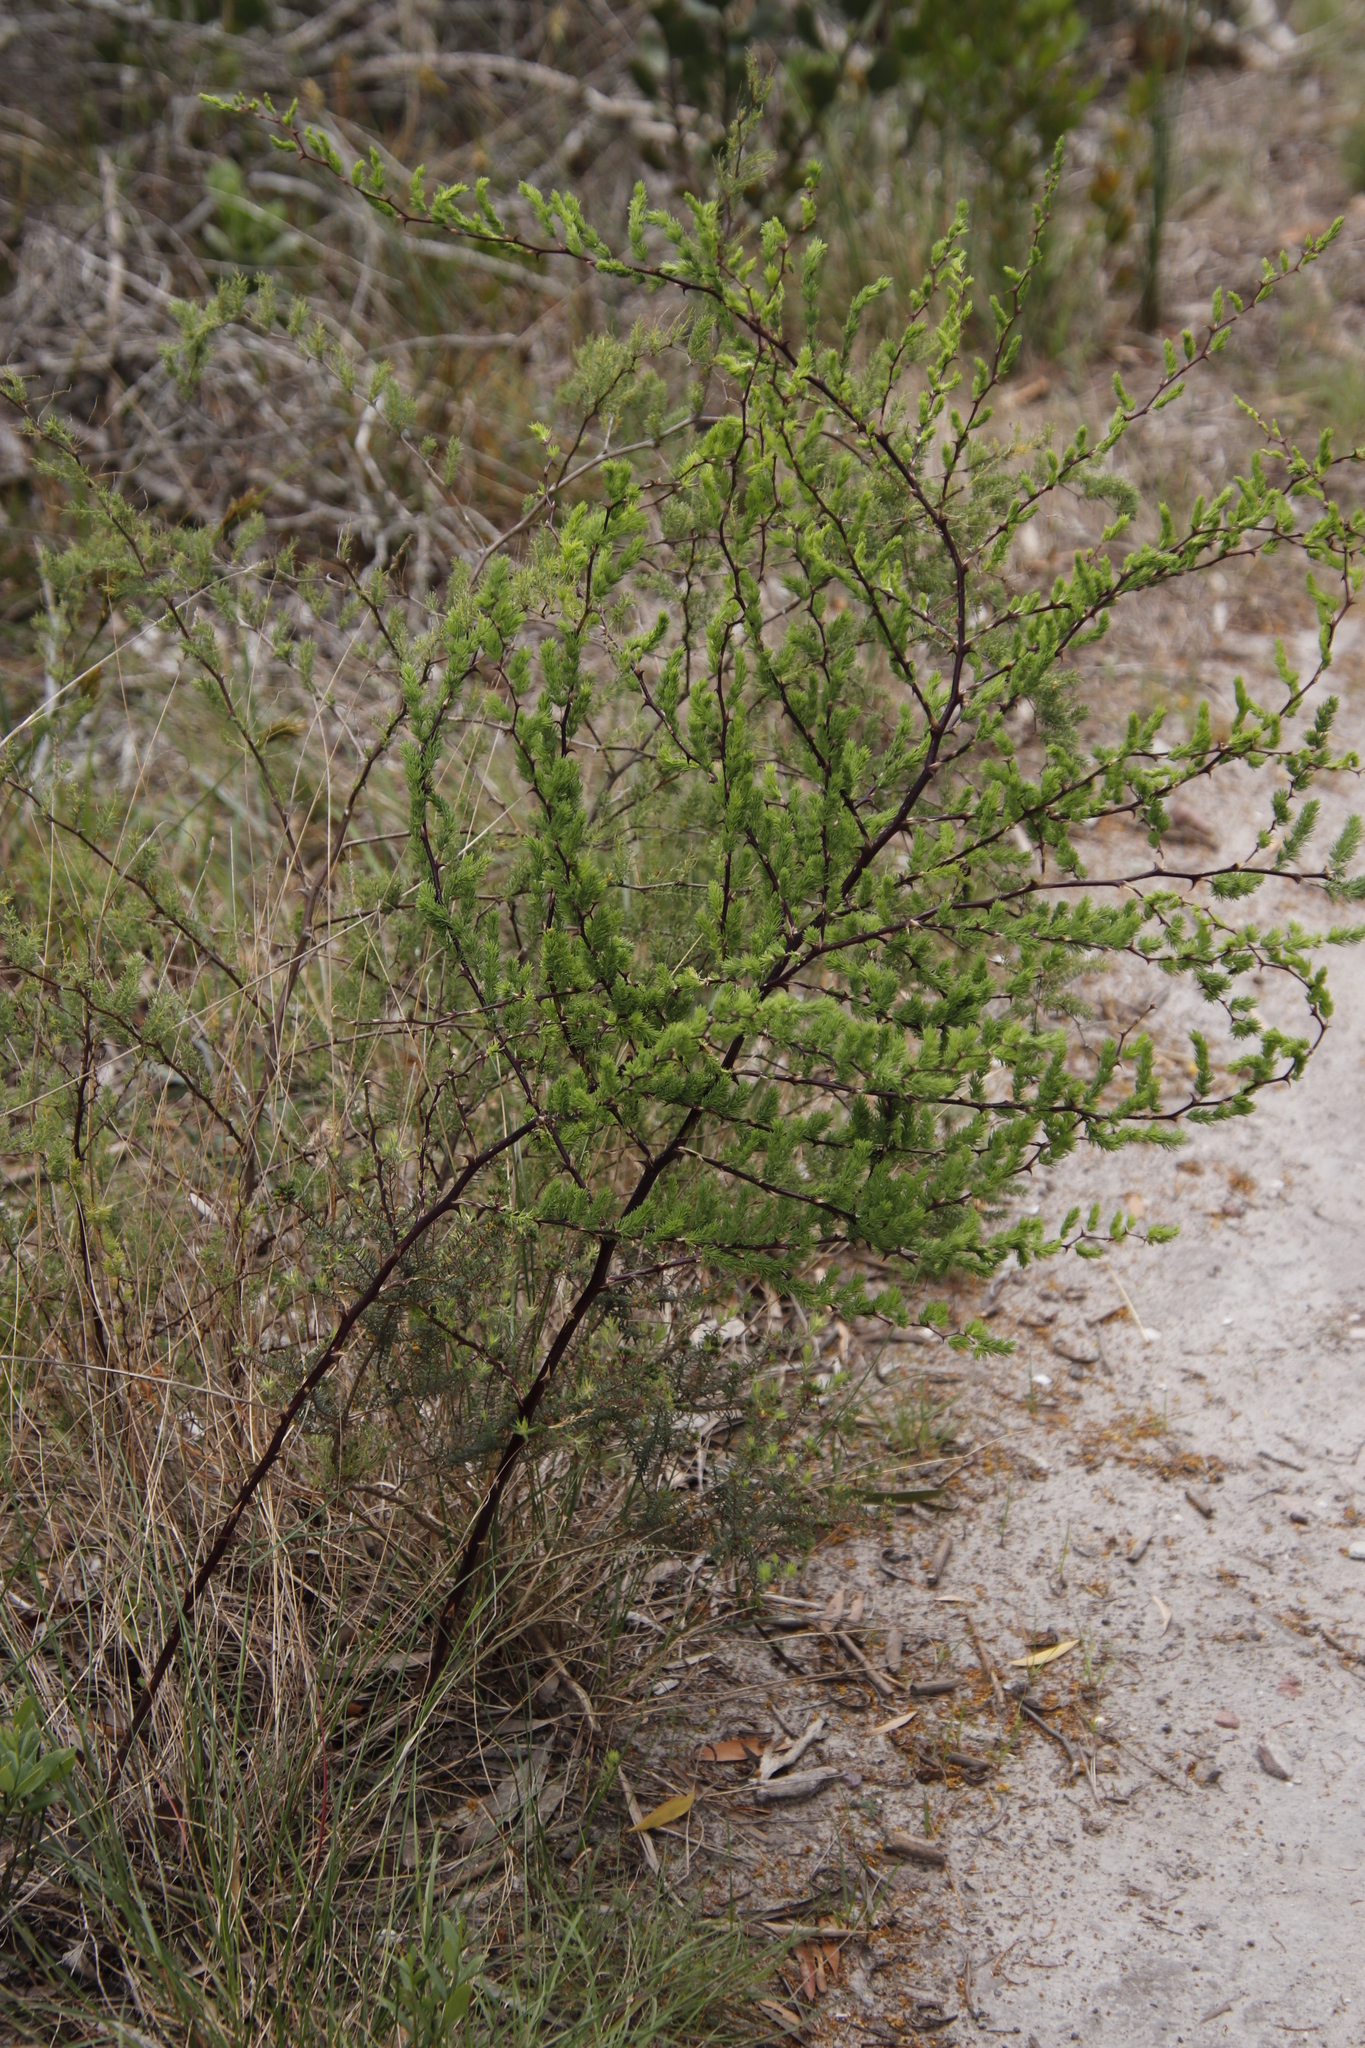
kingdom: Plantae
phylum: Tracheophyta
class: Liliopsida
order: Asparagales
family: Asparagaceae
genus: Asparagus
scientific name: Asparagus rubicundus
